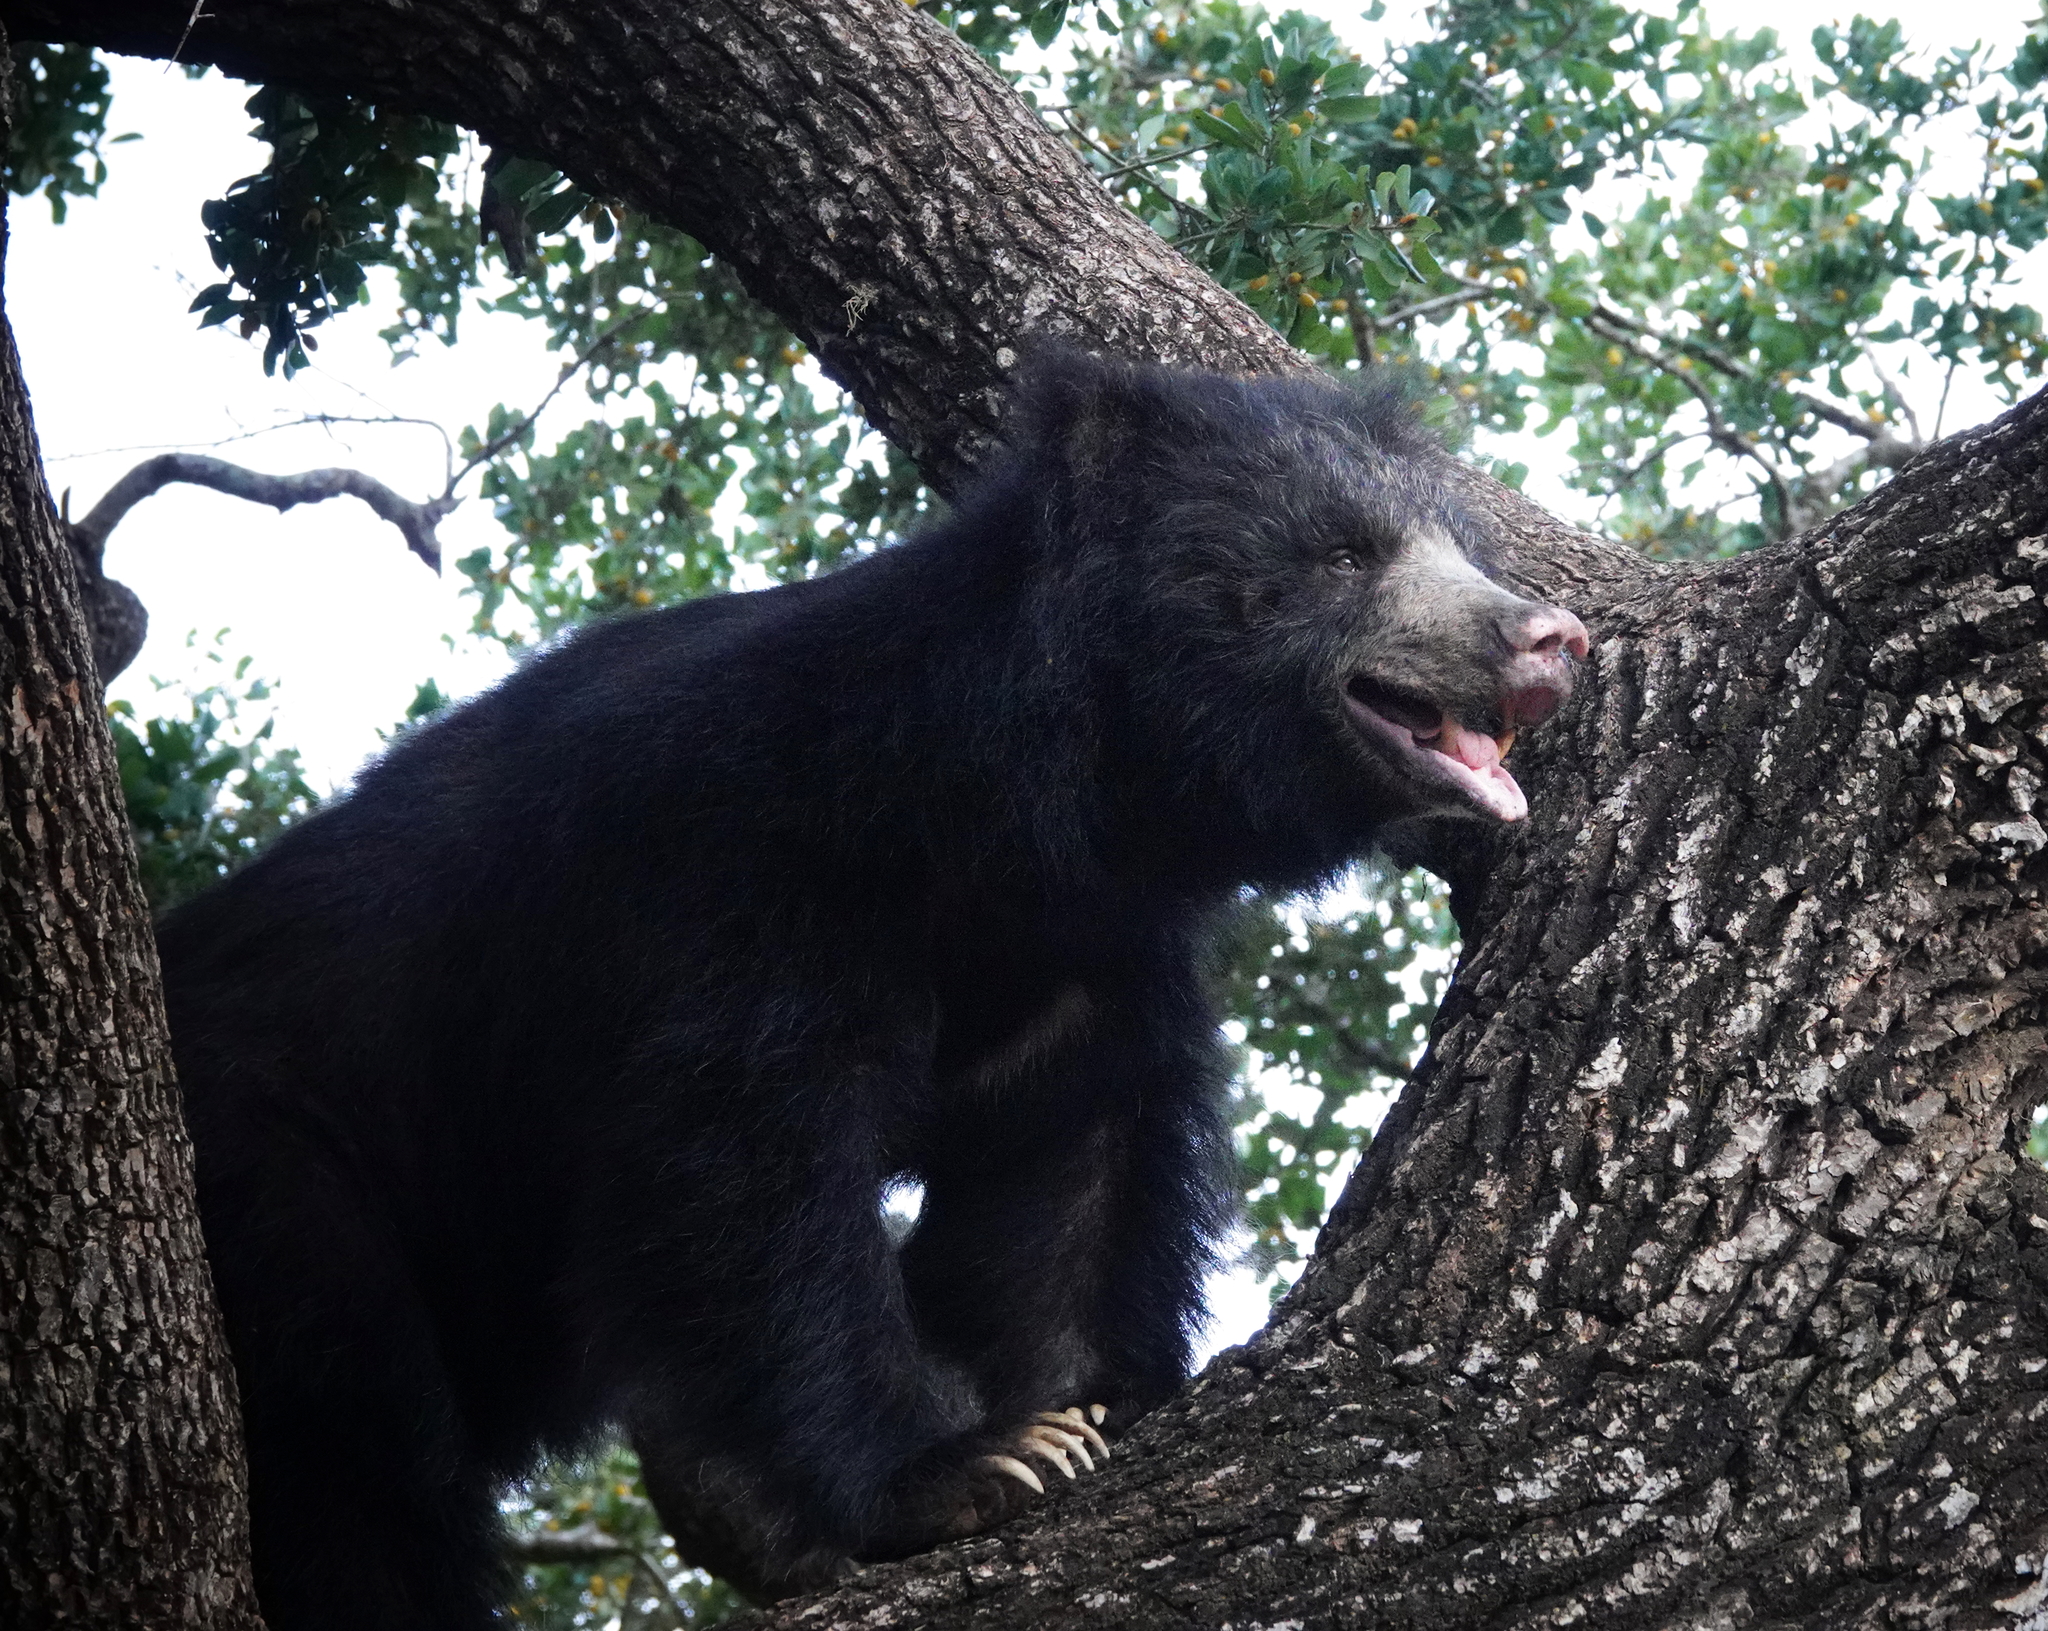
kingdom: Animalia
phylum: Chordata
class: Mammalia
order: Carnivora
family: Ursidae
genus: Melursus
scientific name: Melursus ursinus
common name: Sloth bear
